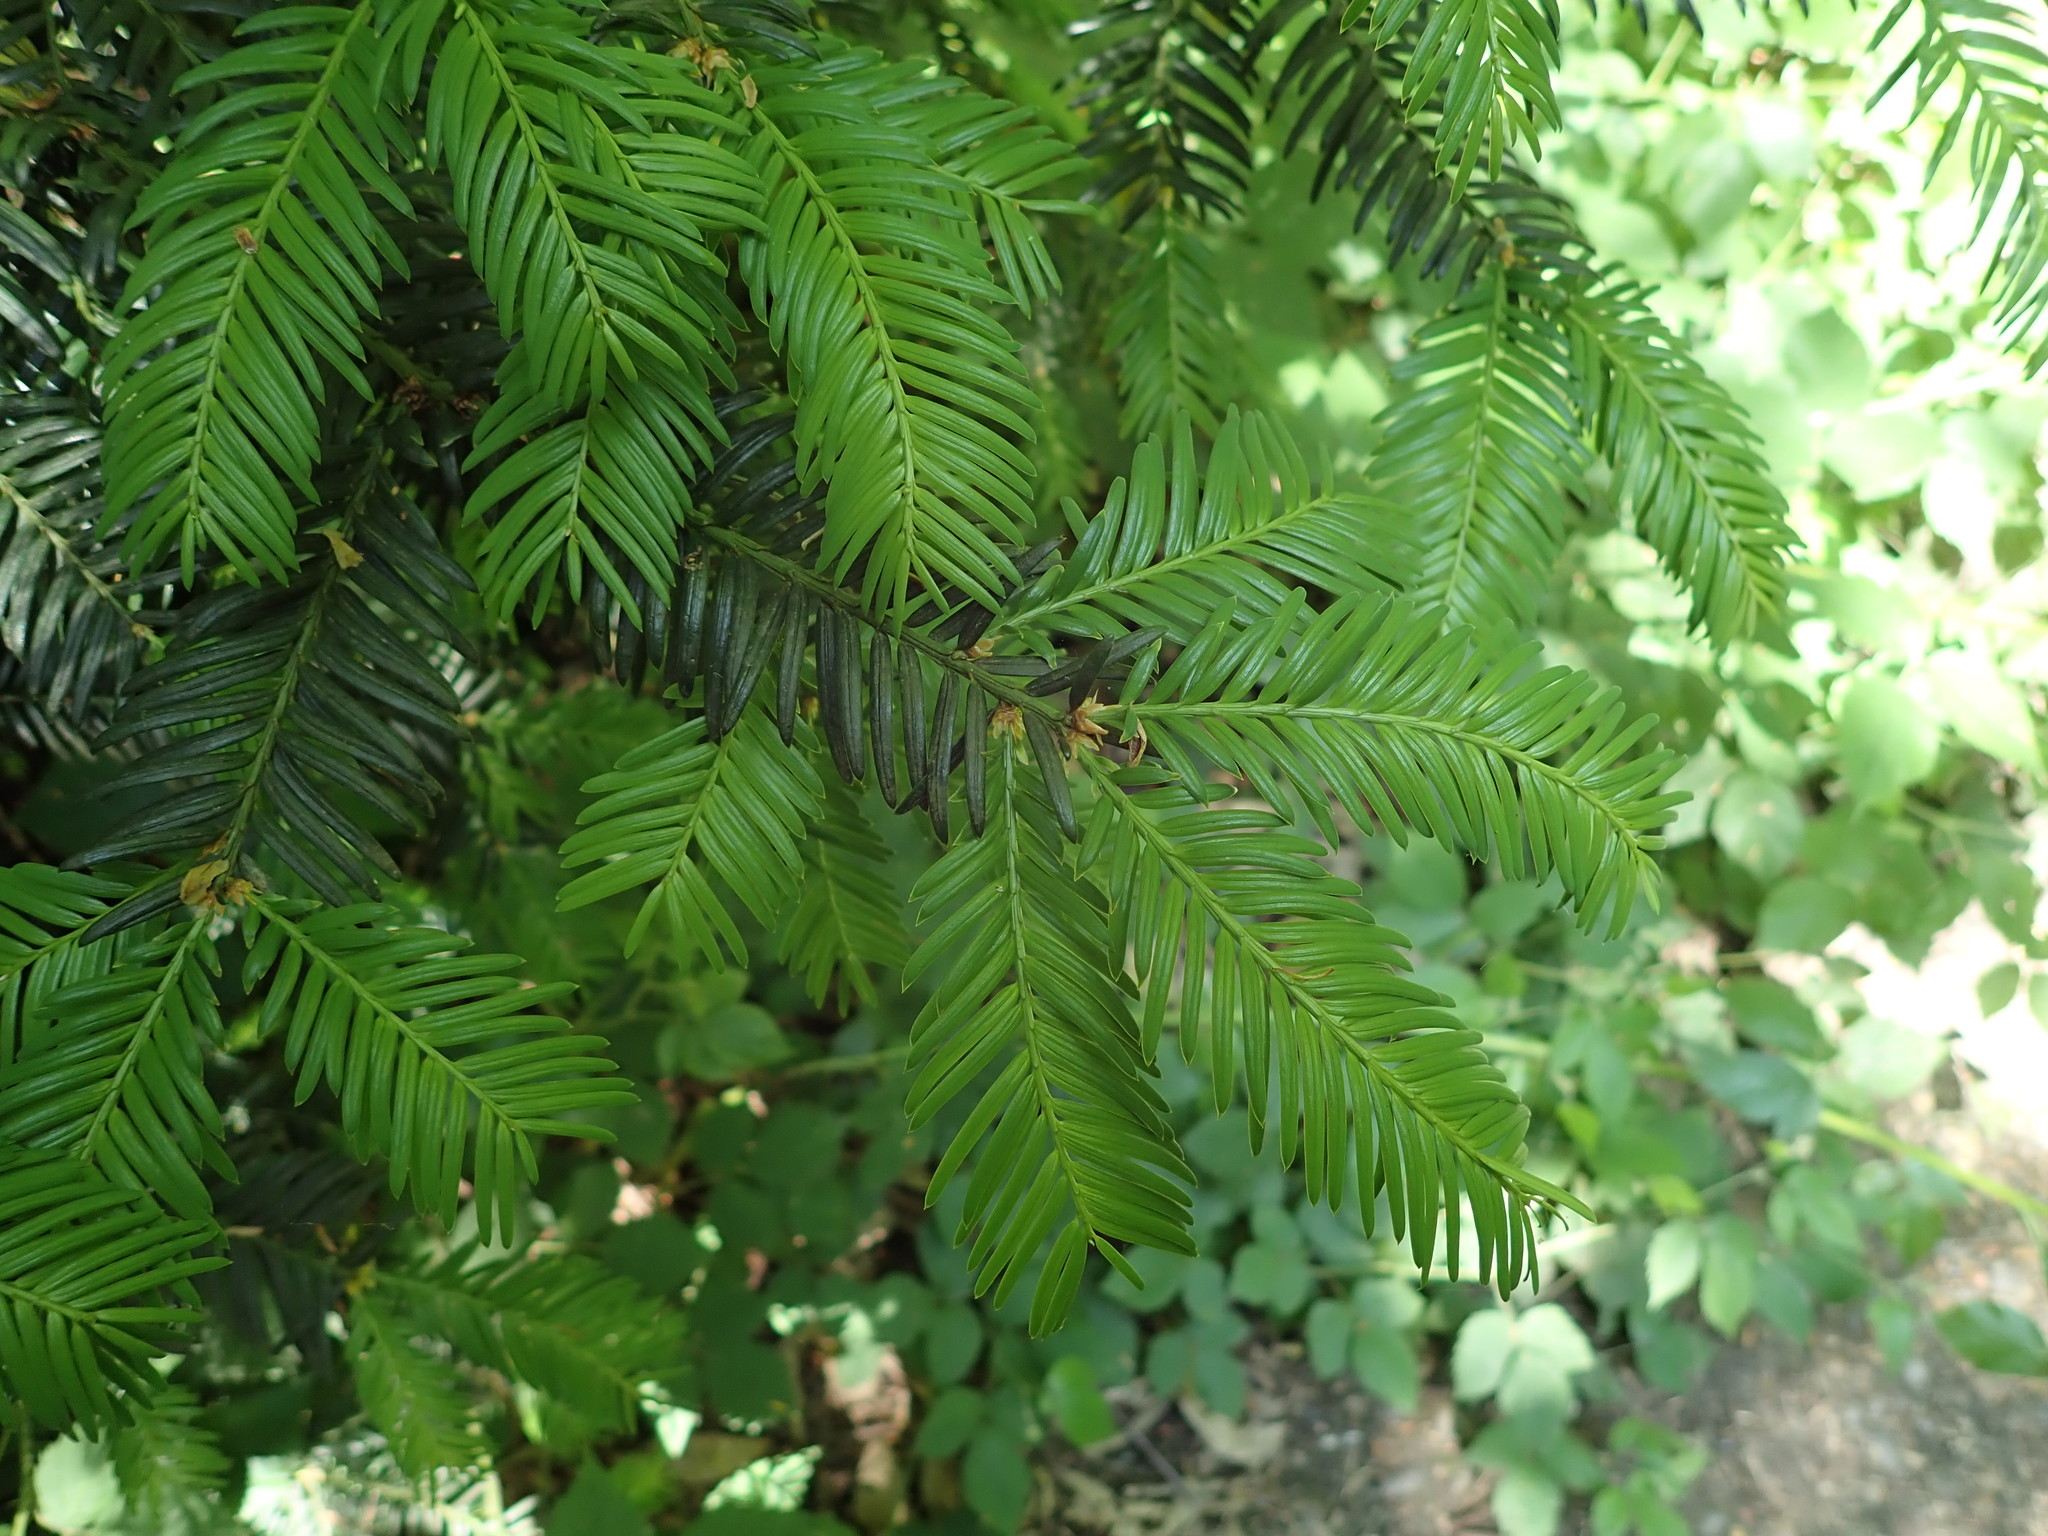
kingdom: Plantae
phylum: Tracheophyta
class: Pinopsida
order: Pinales
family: Taxaceae
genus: Taxus
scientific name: Taxus baccata
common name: Yew
